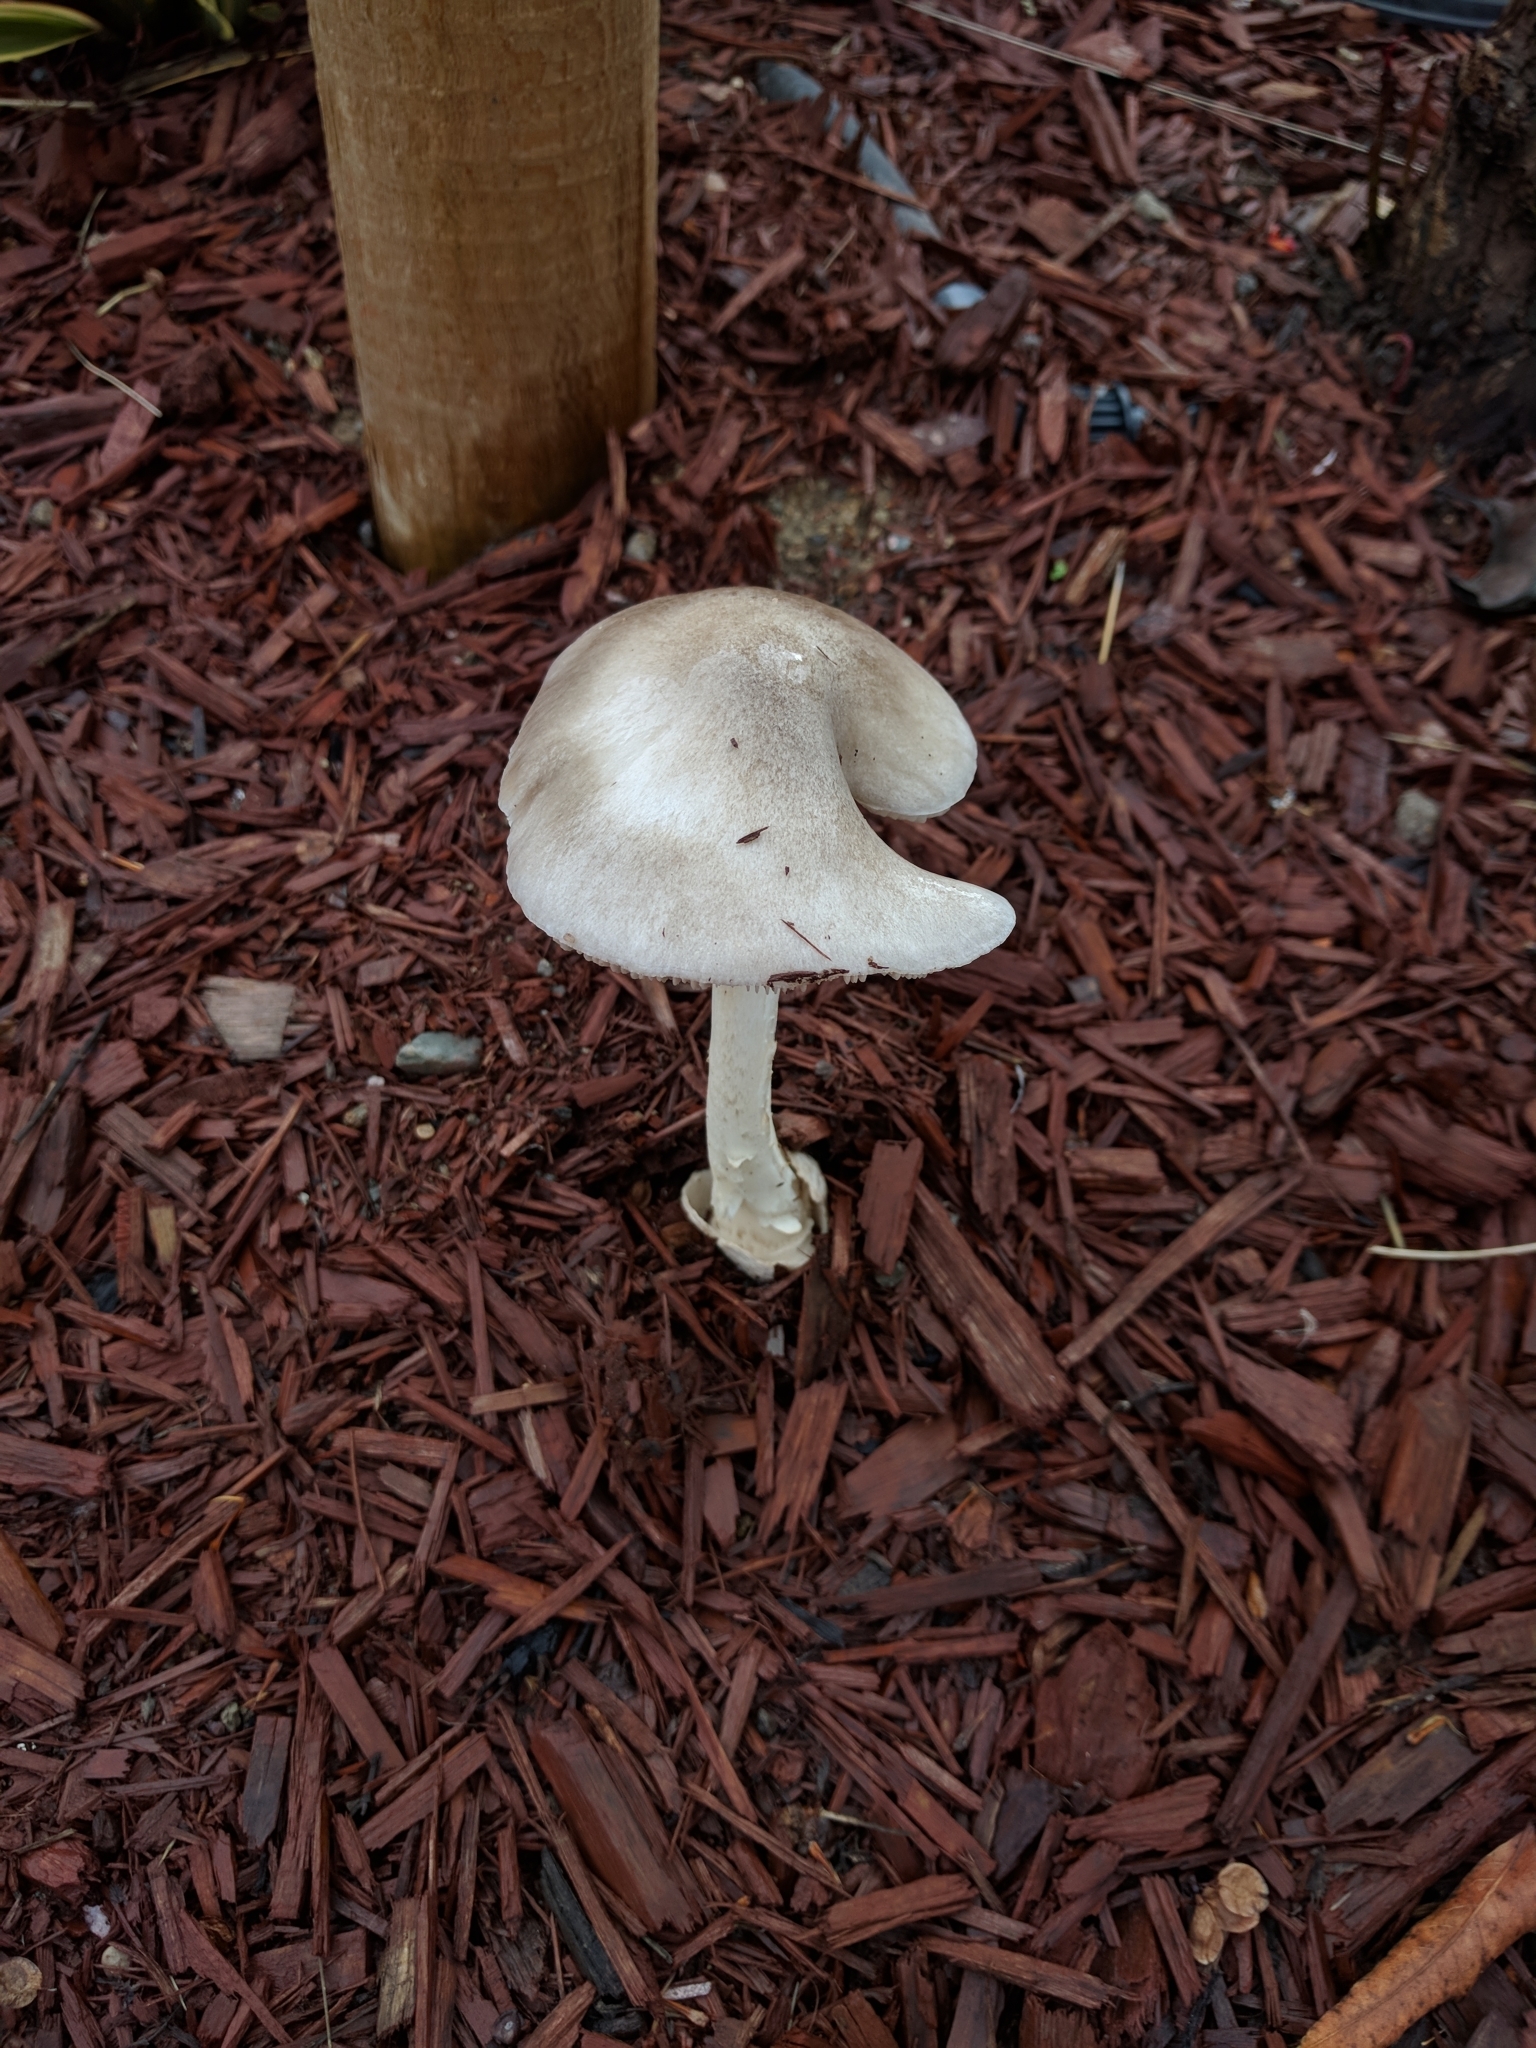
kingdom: Fungi
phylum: Basidiomycota
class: Agaricomycetes
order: Agaricales
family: Pluteaceae
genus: Volvopluteus
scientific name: Volvopluteus gloiocephalus
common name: Stubble rosegill
